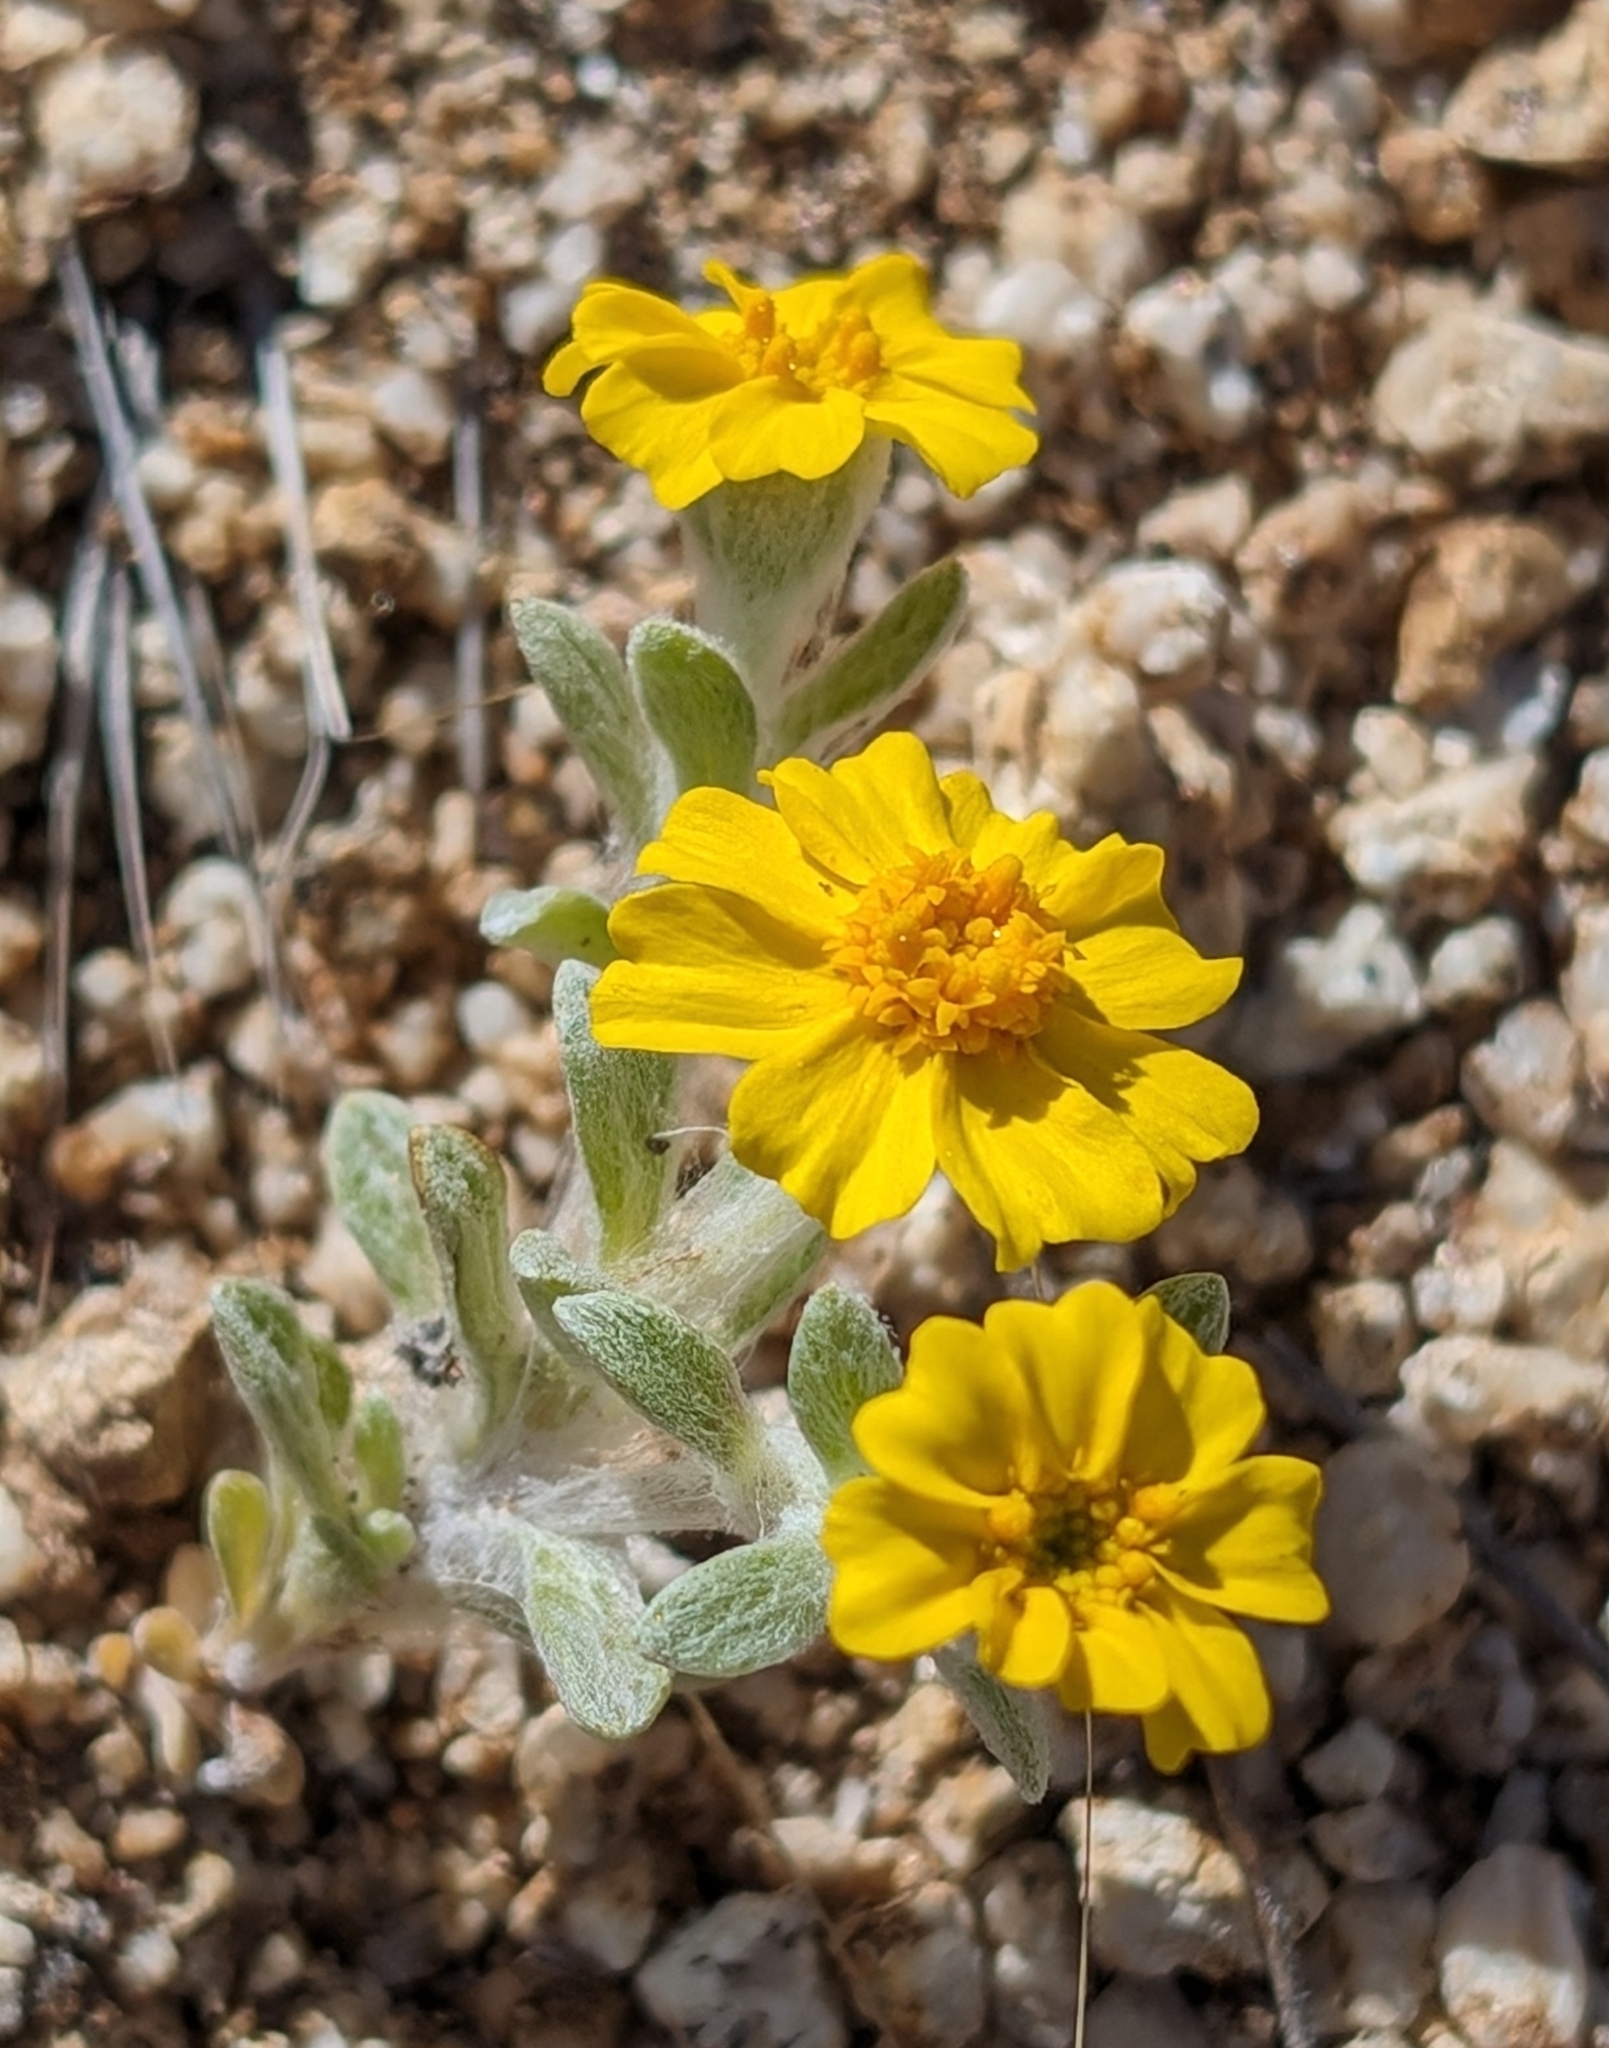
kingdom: Plantae
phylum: Tracheophyta
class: Magnoliopsida
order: Asterales
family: Asteraceae
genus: Eriophyllum
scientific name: Eriophyllum wallacei
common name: Wallace's woolly daisy
